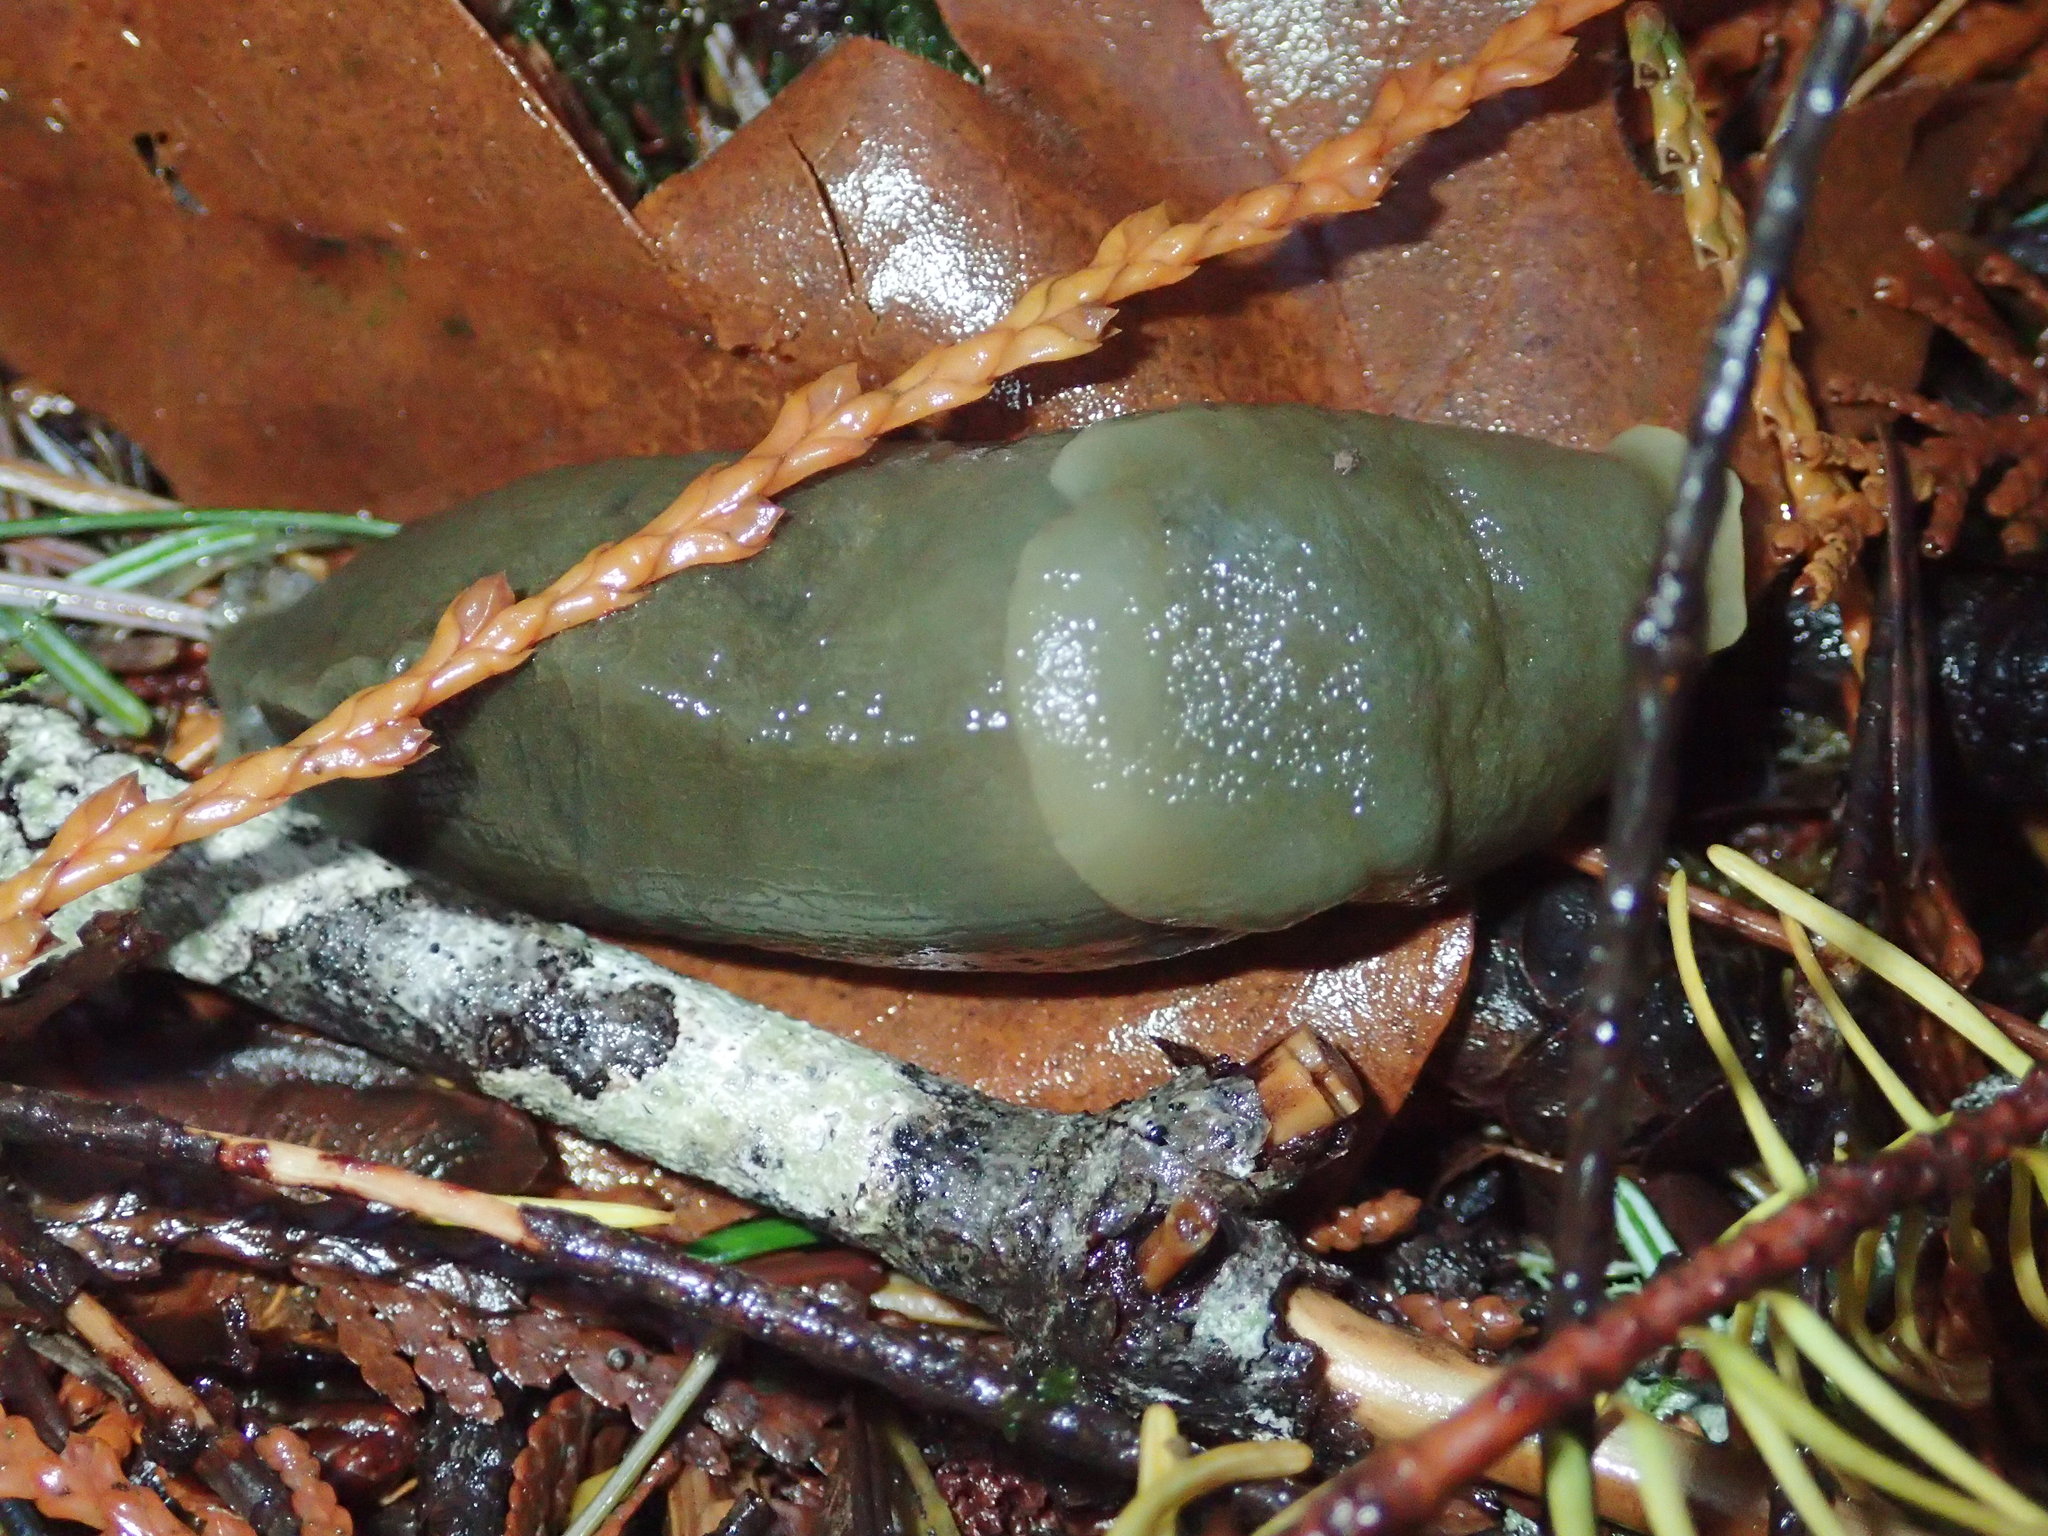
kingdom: Animalia
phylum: Mollusca
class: Gastropoda
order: Stylommatophora
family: Ariolimacidae
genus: Ariolimax
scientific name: Ariolimax columbianus
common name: Pacific banana slug
